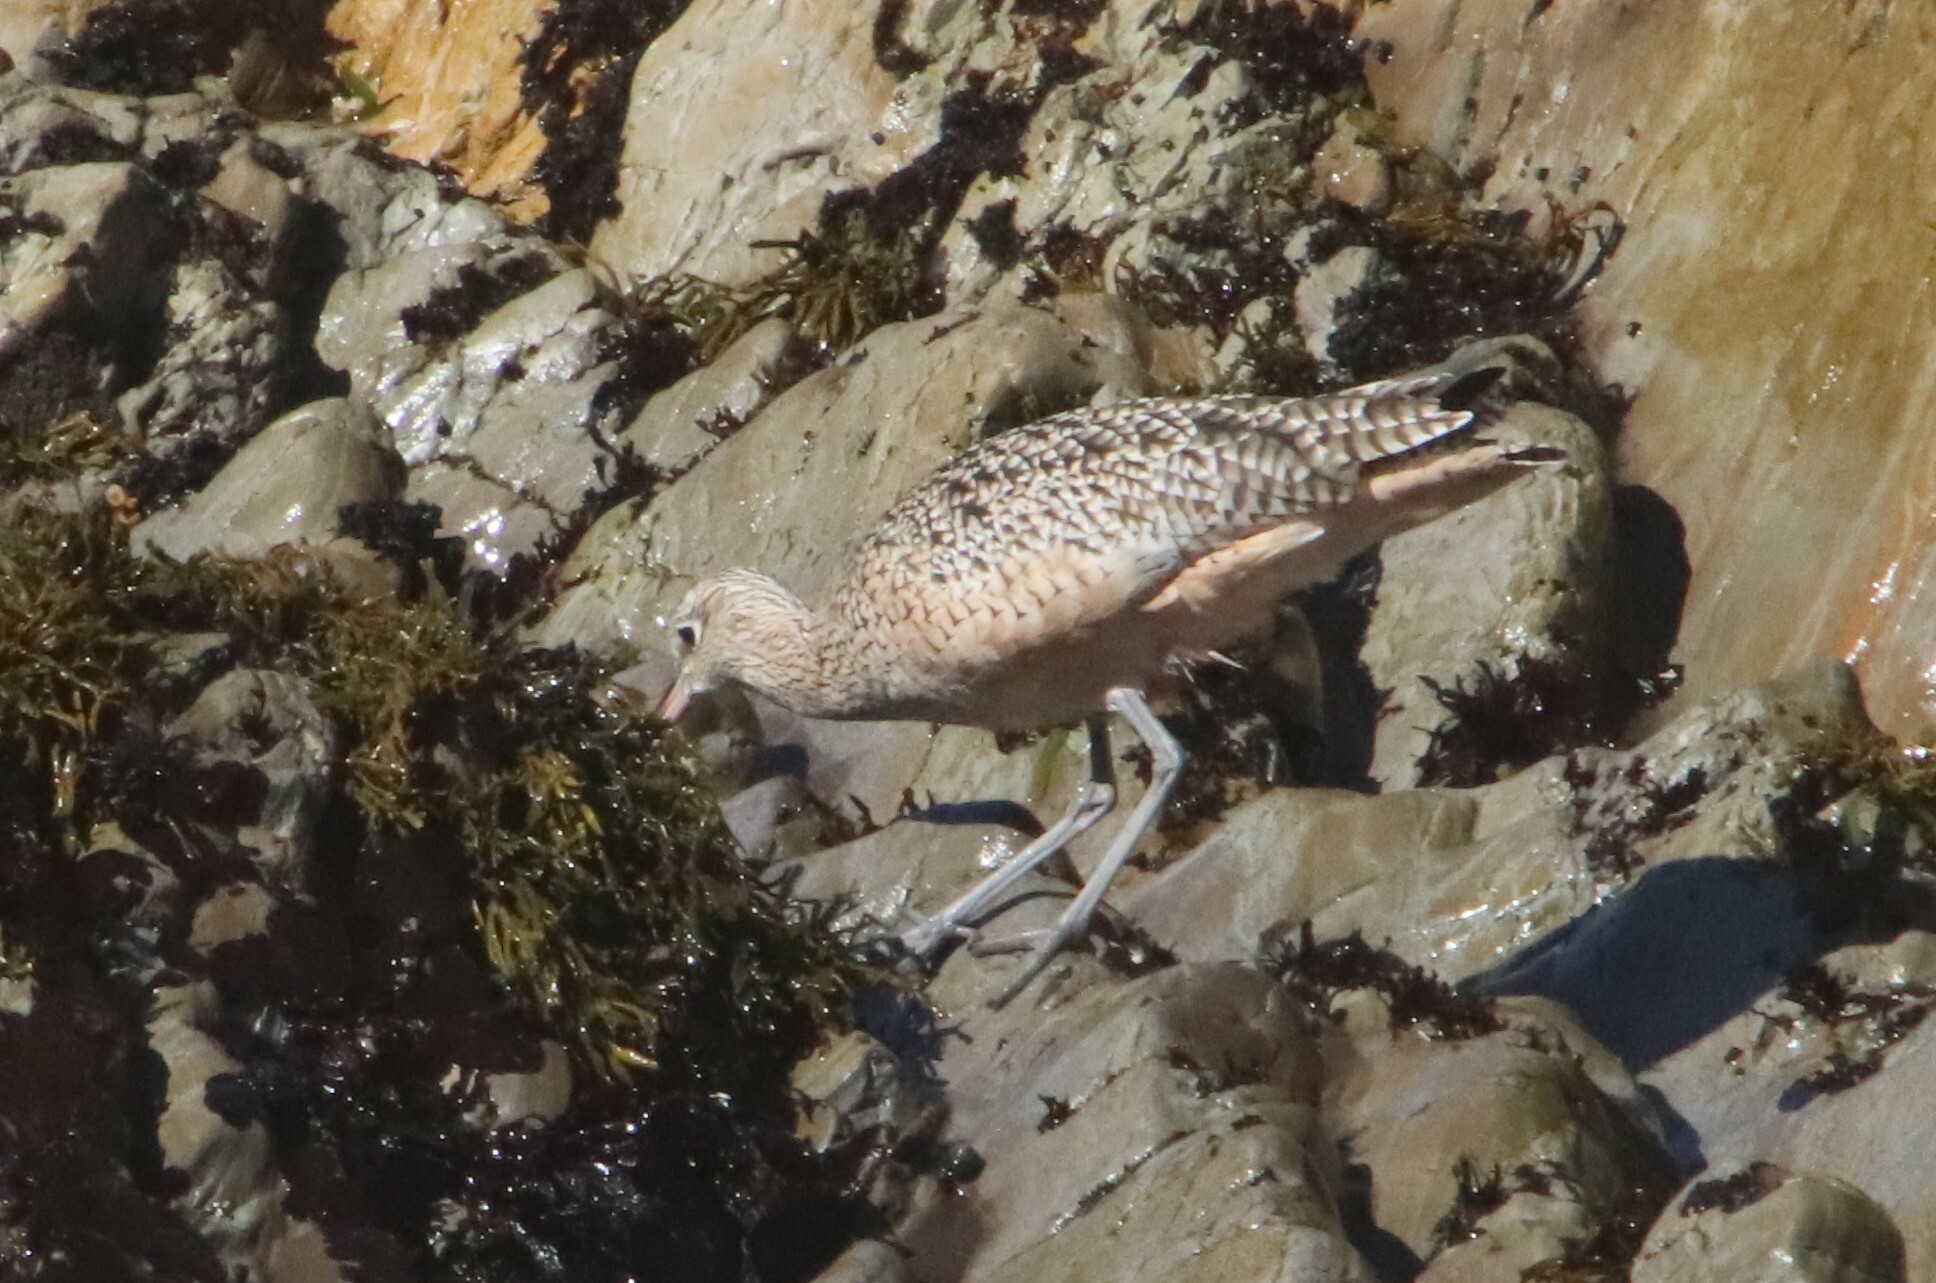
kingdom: Animalia
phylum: Chordata
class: Aves
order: Charadriiformes
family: Scolopacidae
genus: Numenius
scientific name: Numenius americanus
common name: Long-billed curlew
